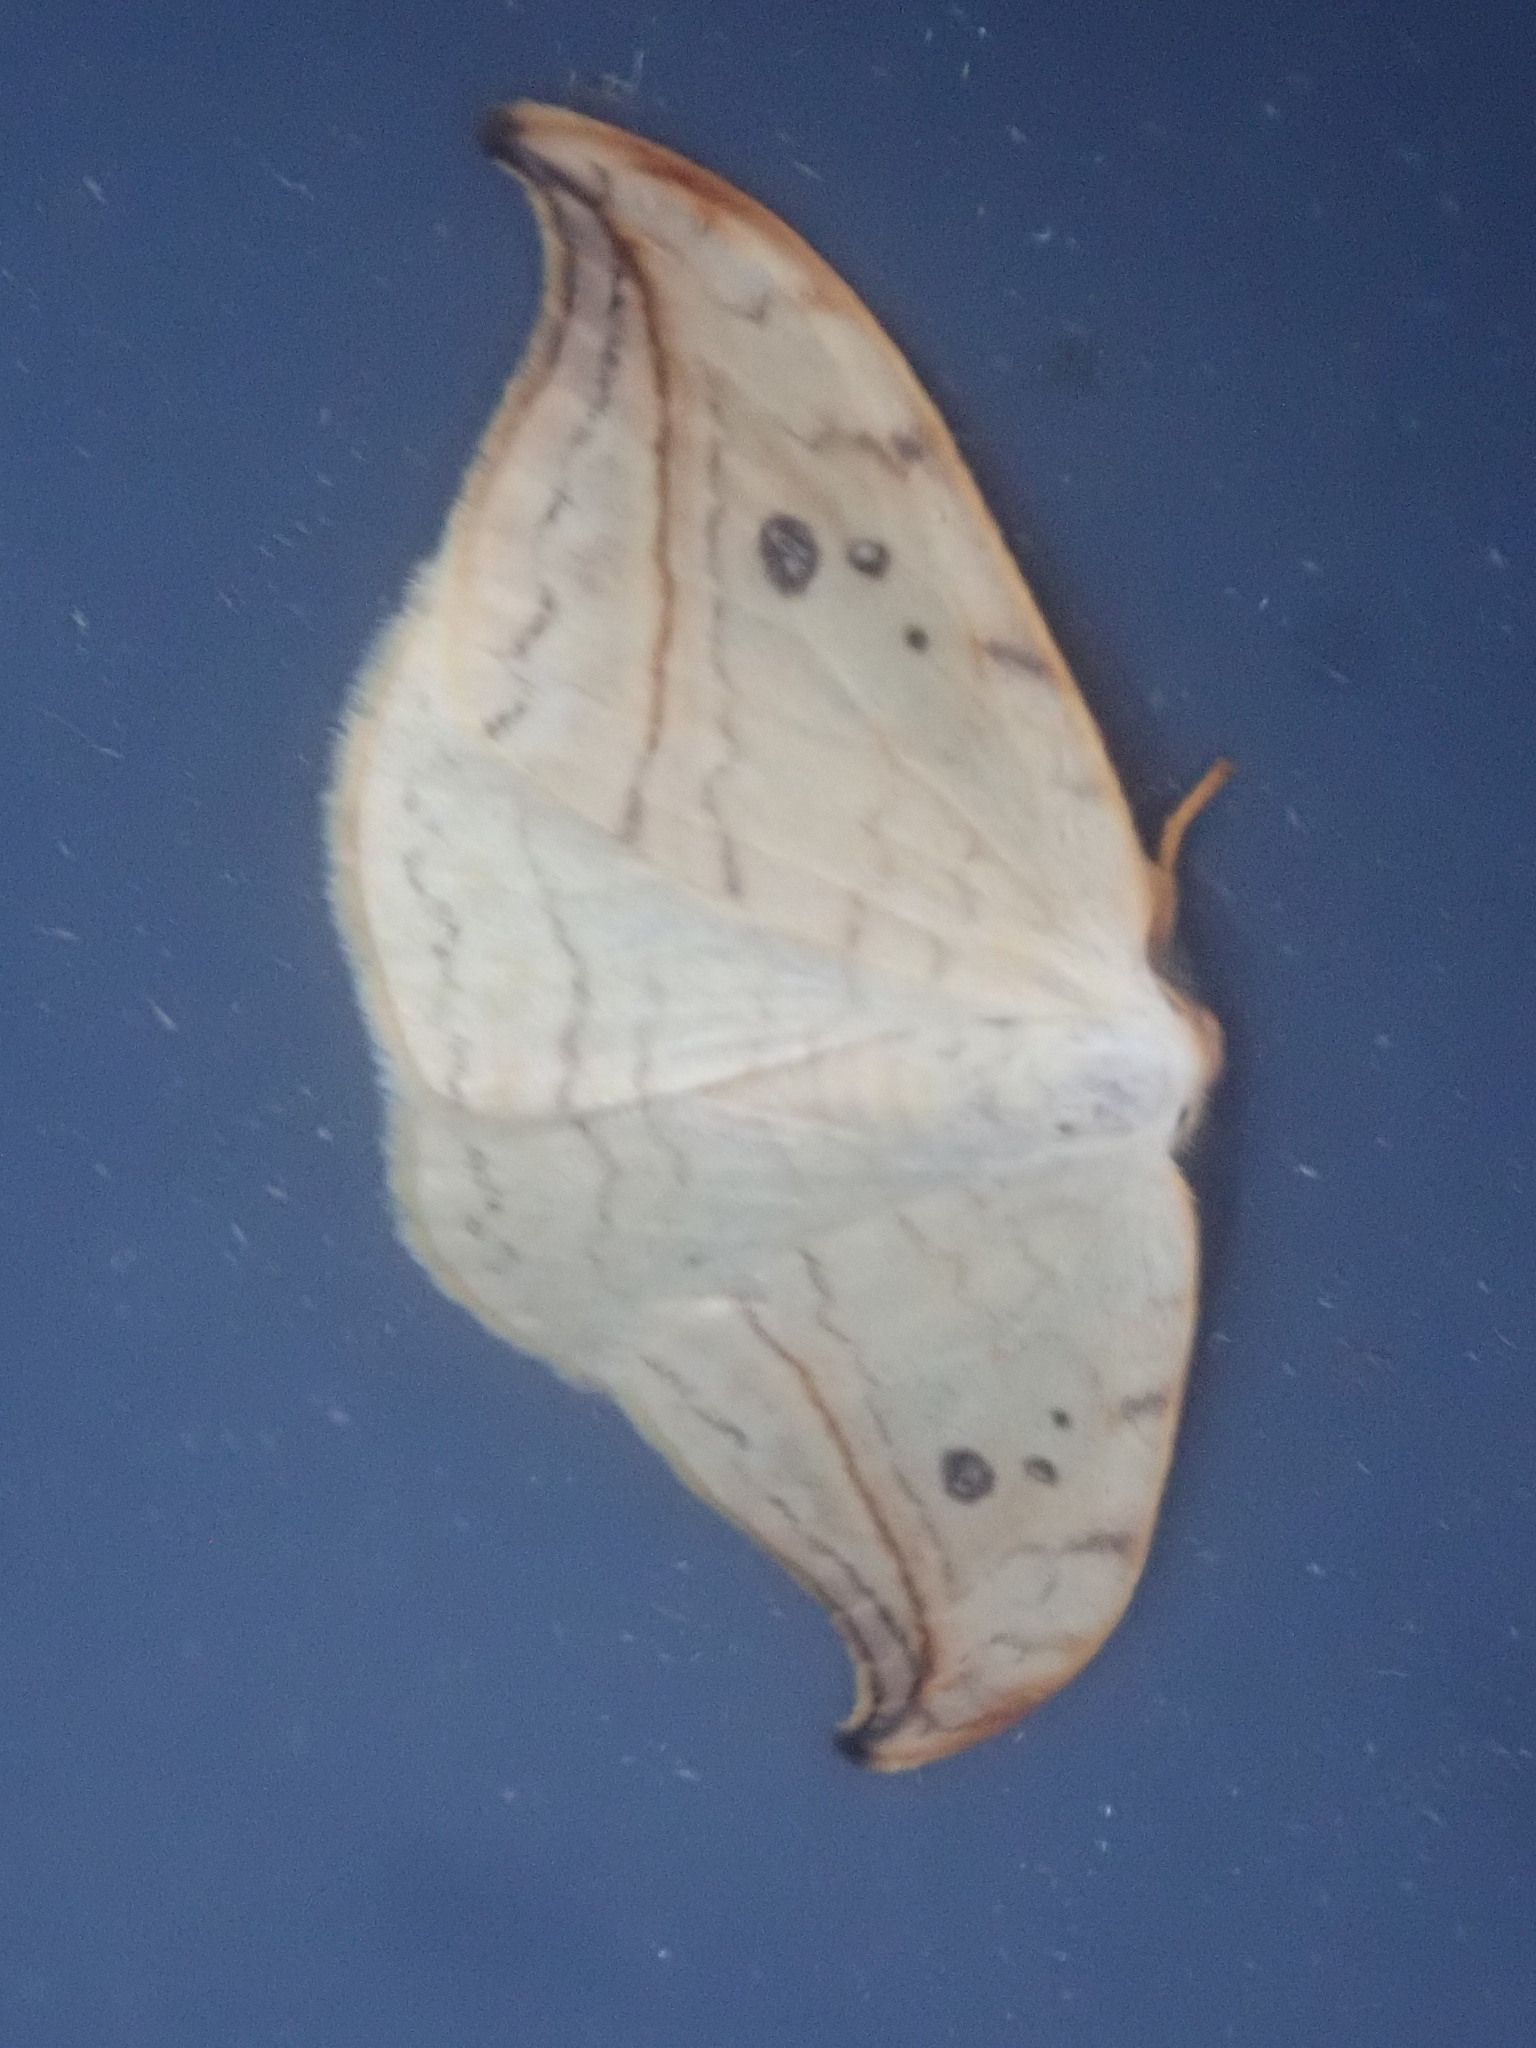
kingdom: Animalia
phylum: Arthropoda
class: Insecta
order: Lepidoptera
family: Drepanidae
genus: Drepana
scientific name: Drepana arcuata
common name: Arched hooktip moth
